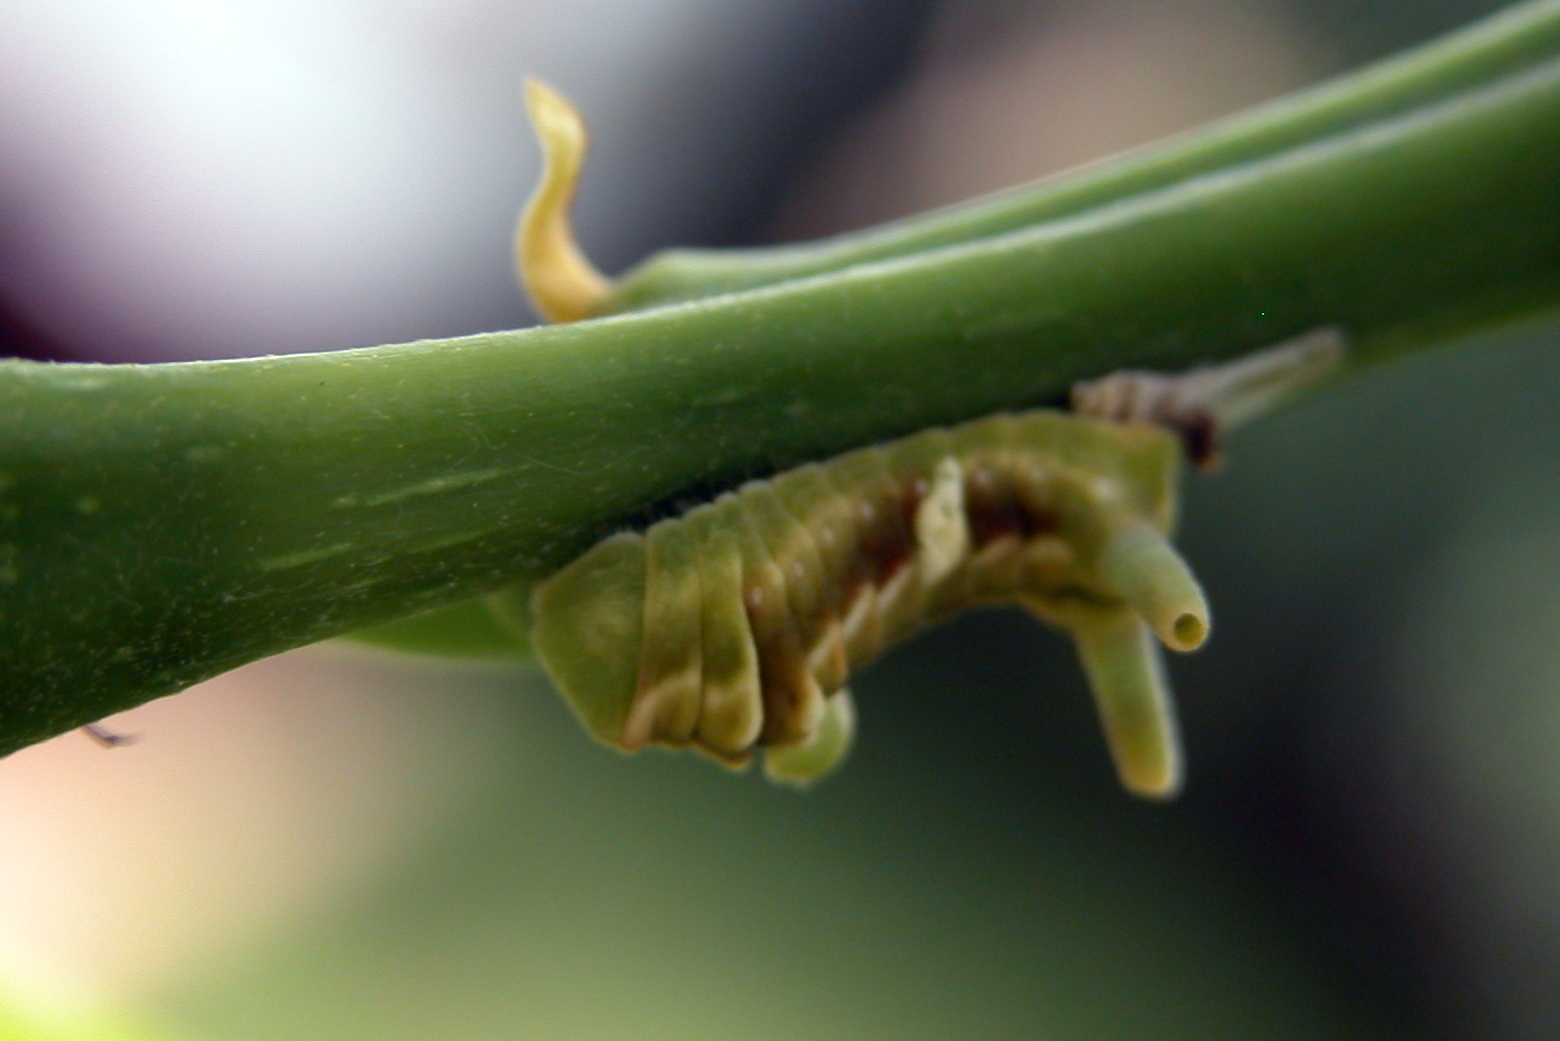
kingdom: Animalia
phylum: Arthropoda
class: Insecta
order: Lepidoptera
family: Lycaenidae
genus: Curetis
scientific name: Curetis thetis
